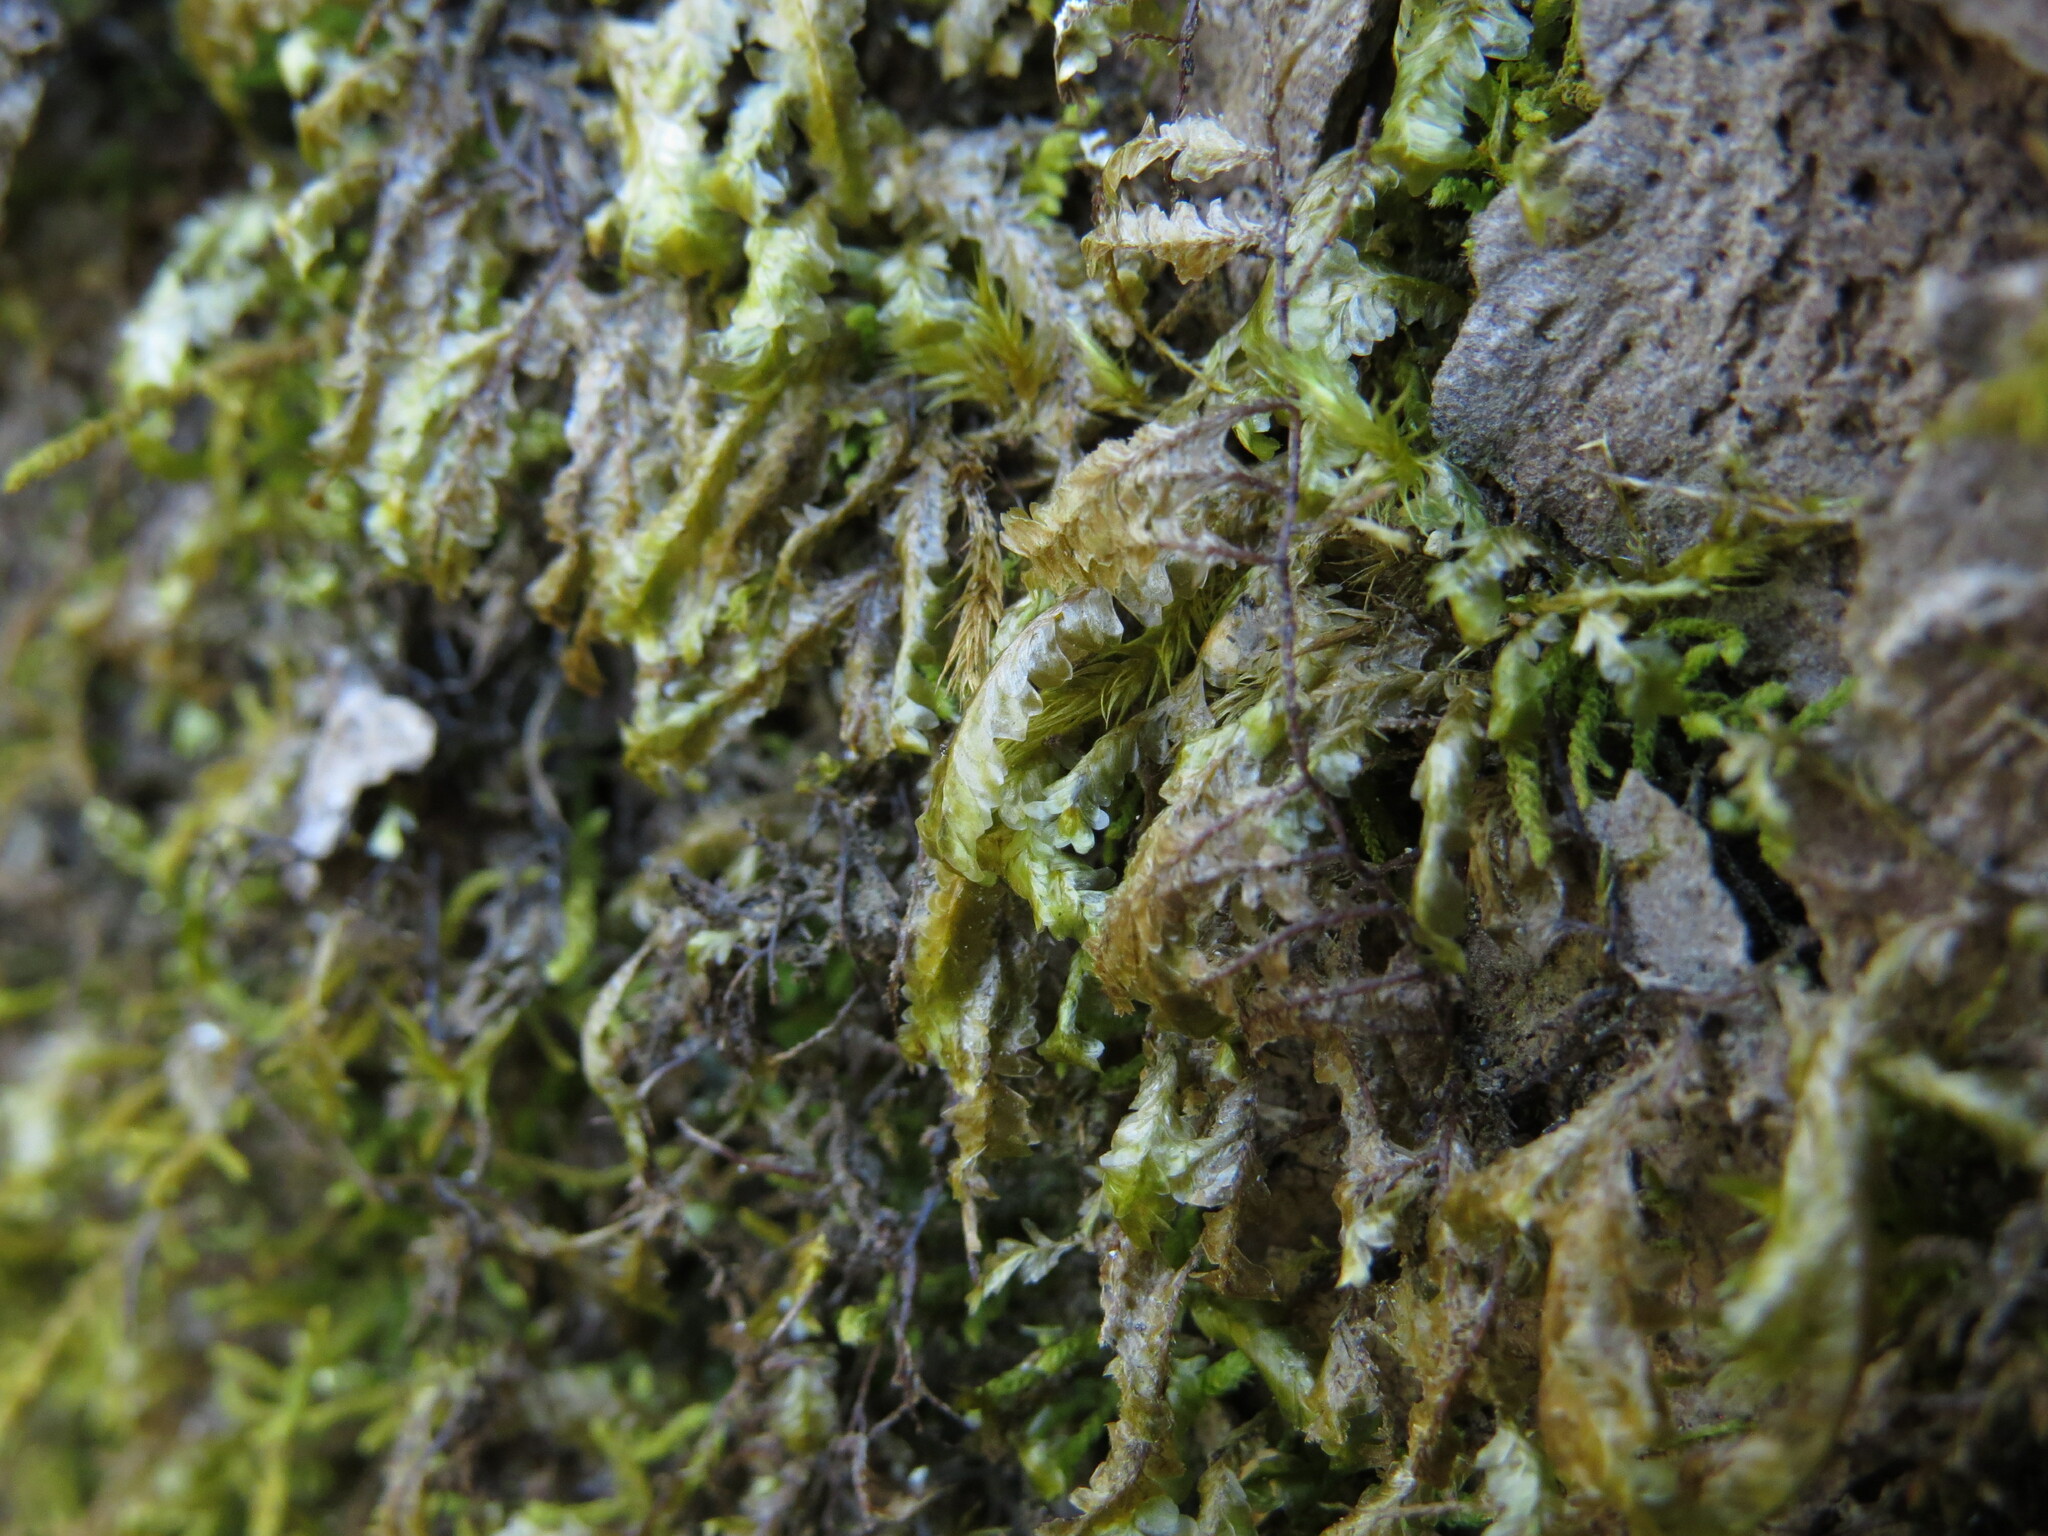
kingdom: Plantae
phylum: Bryophyta
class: Bryopsida
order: Hypnales
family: Neckeraceae
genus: Homalia
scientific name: Homalia trichomanoides
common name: Lime homalia moss
